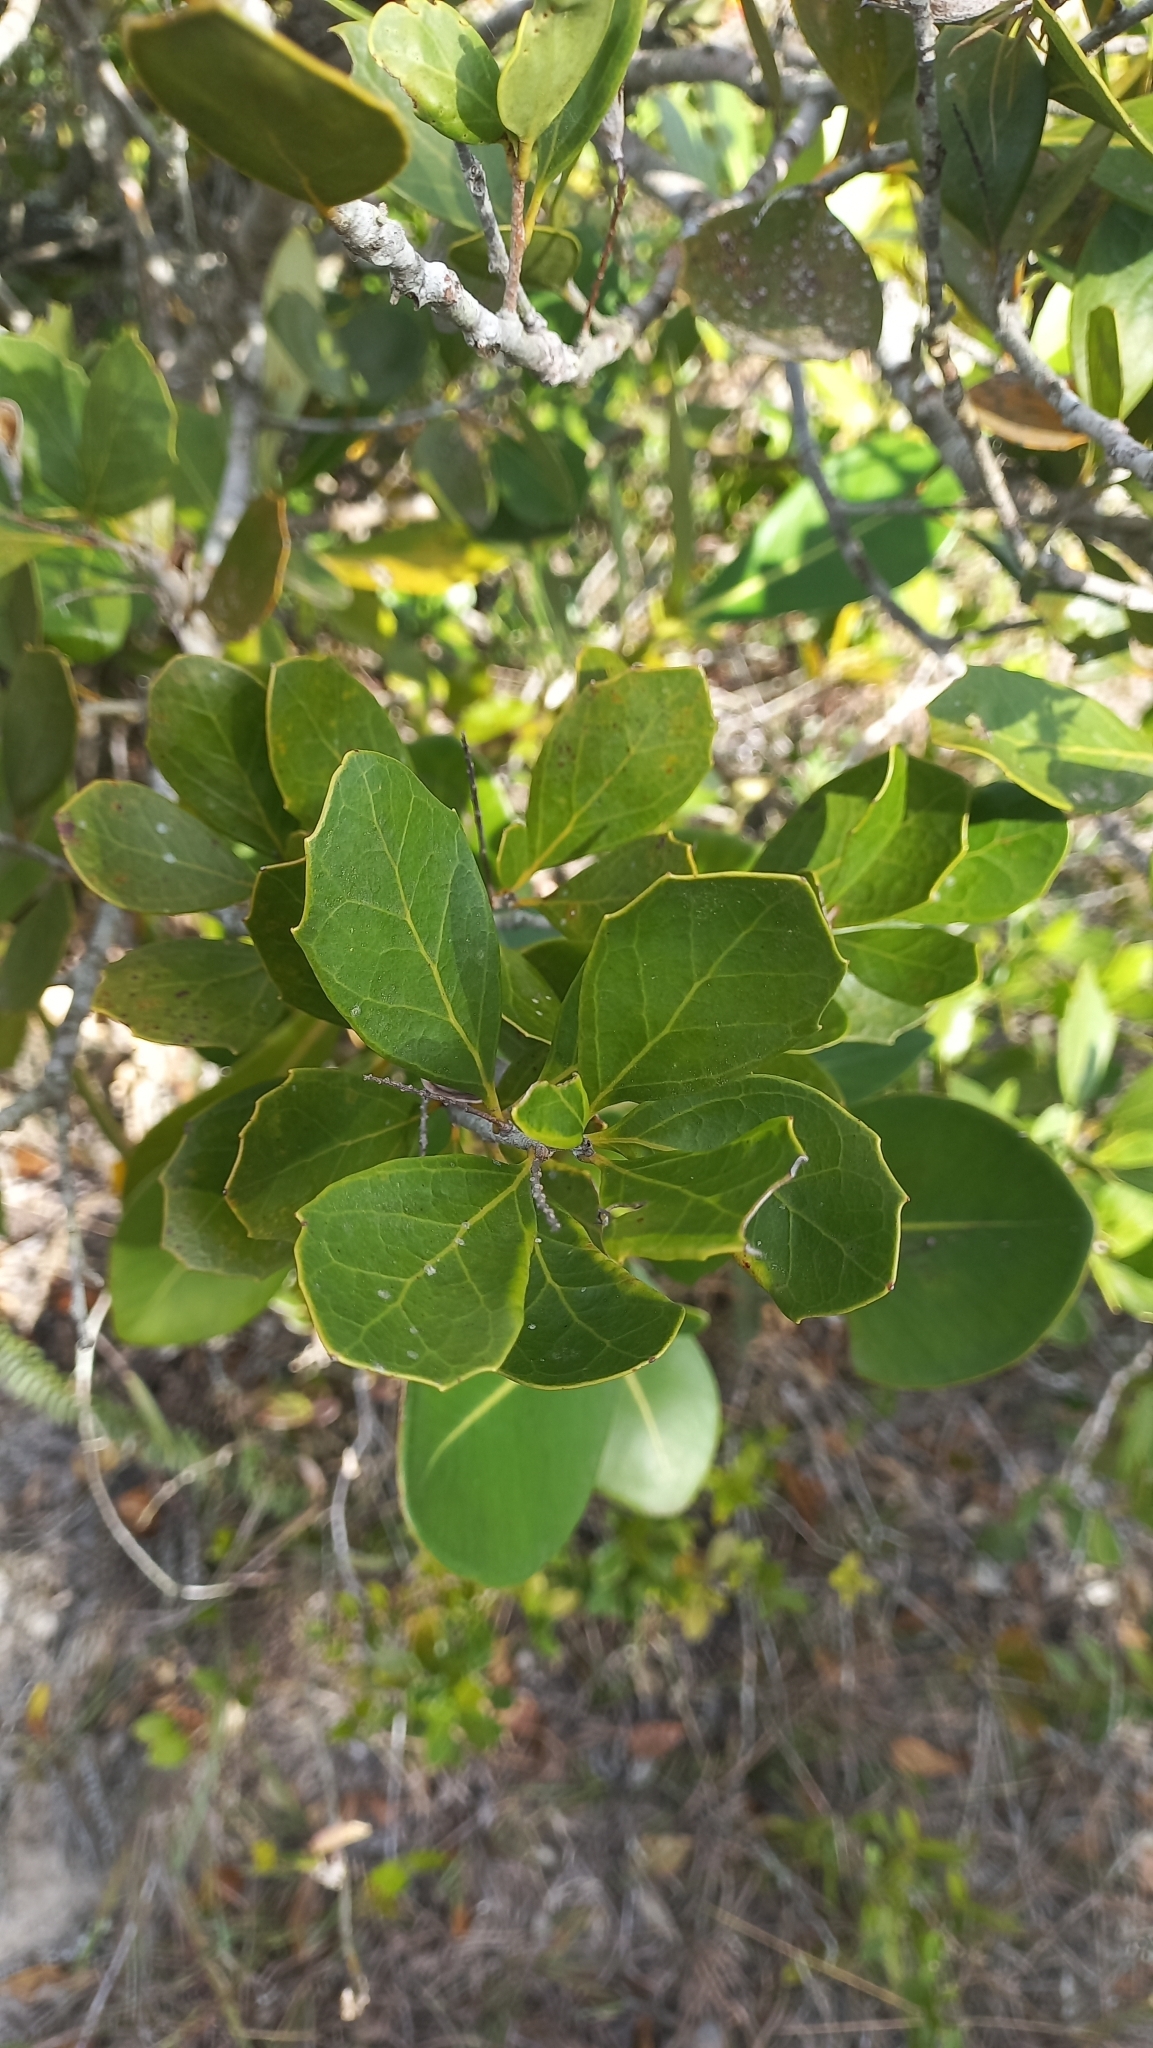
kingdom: Plantae
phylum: Tracheophyta
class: Magnoliopsida
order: Proteales
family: Proteaceae
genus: Roupala
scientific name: Roupala pallida
